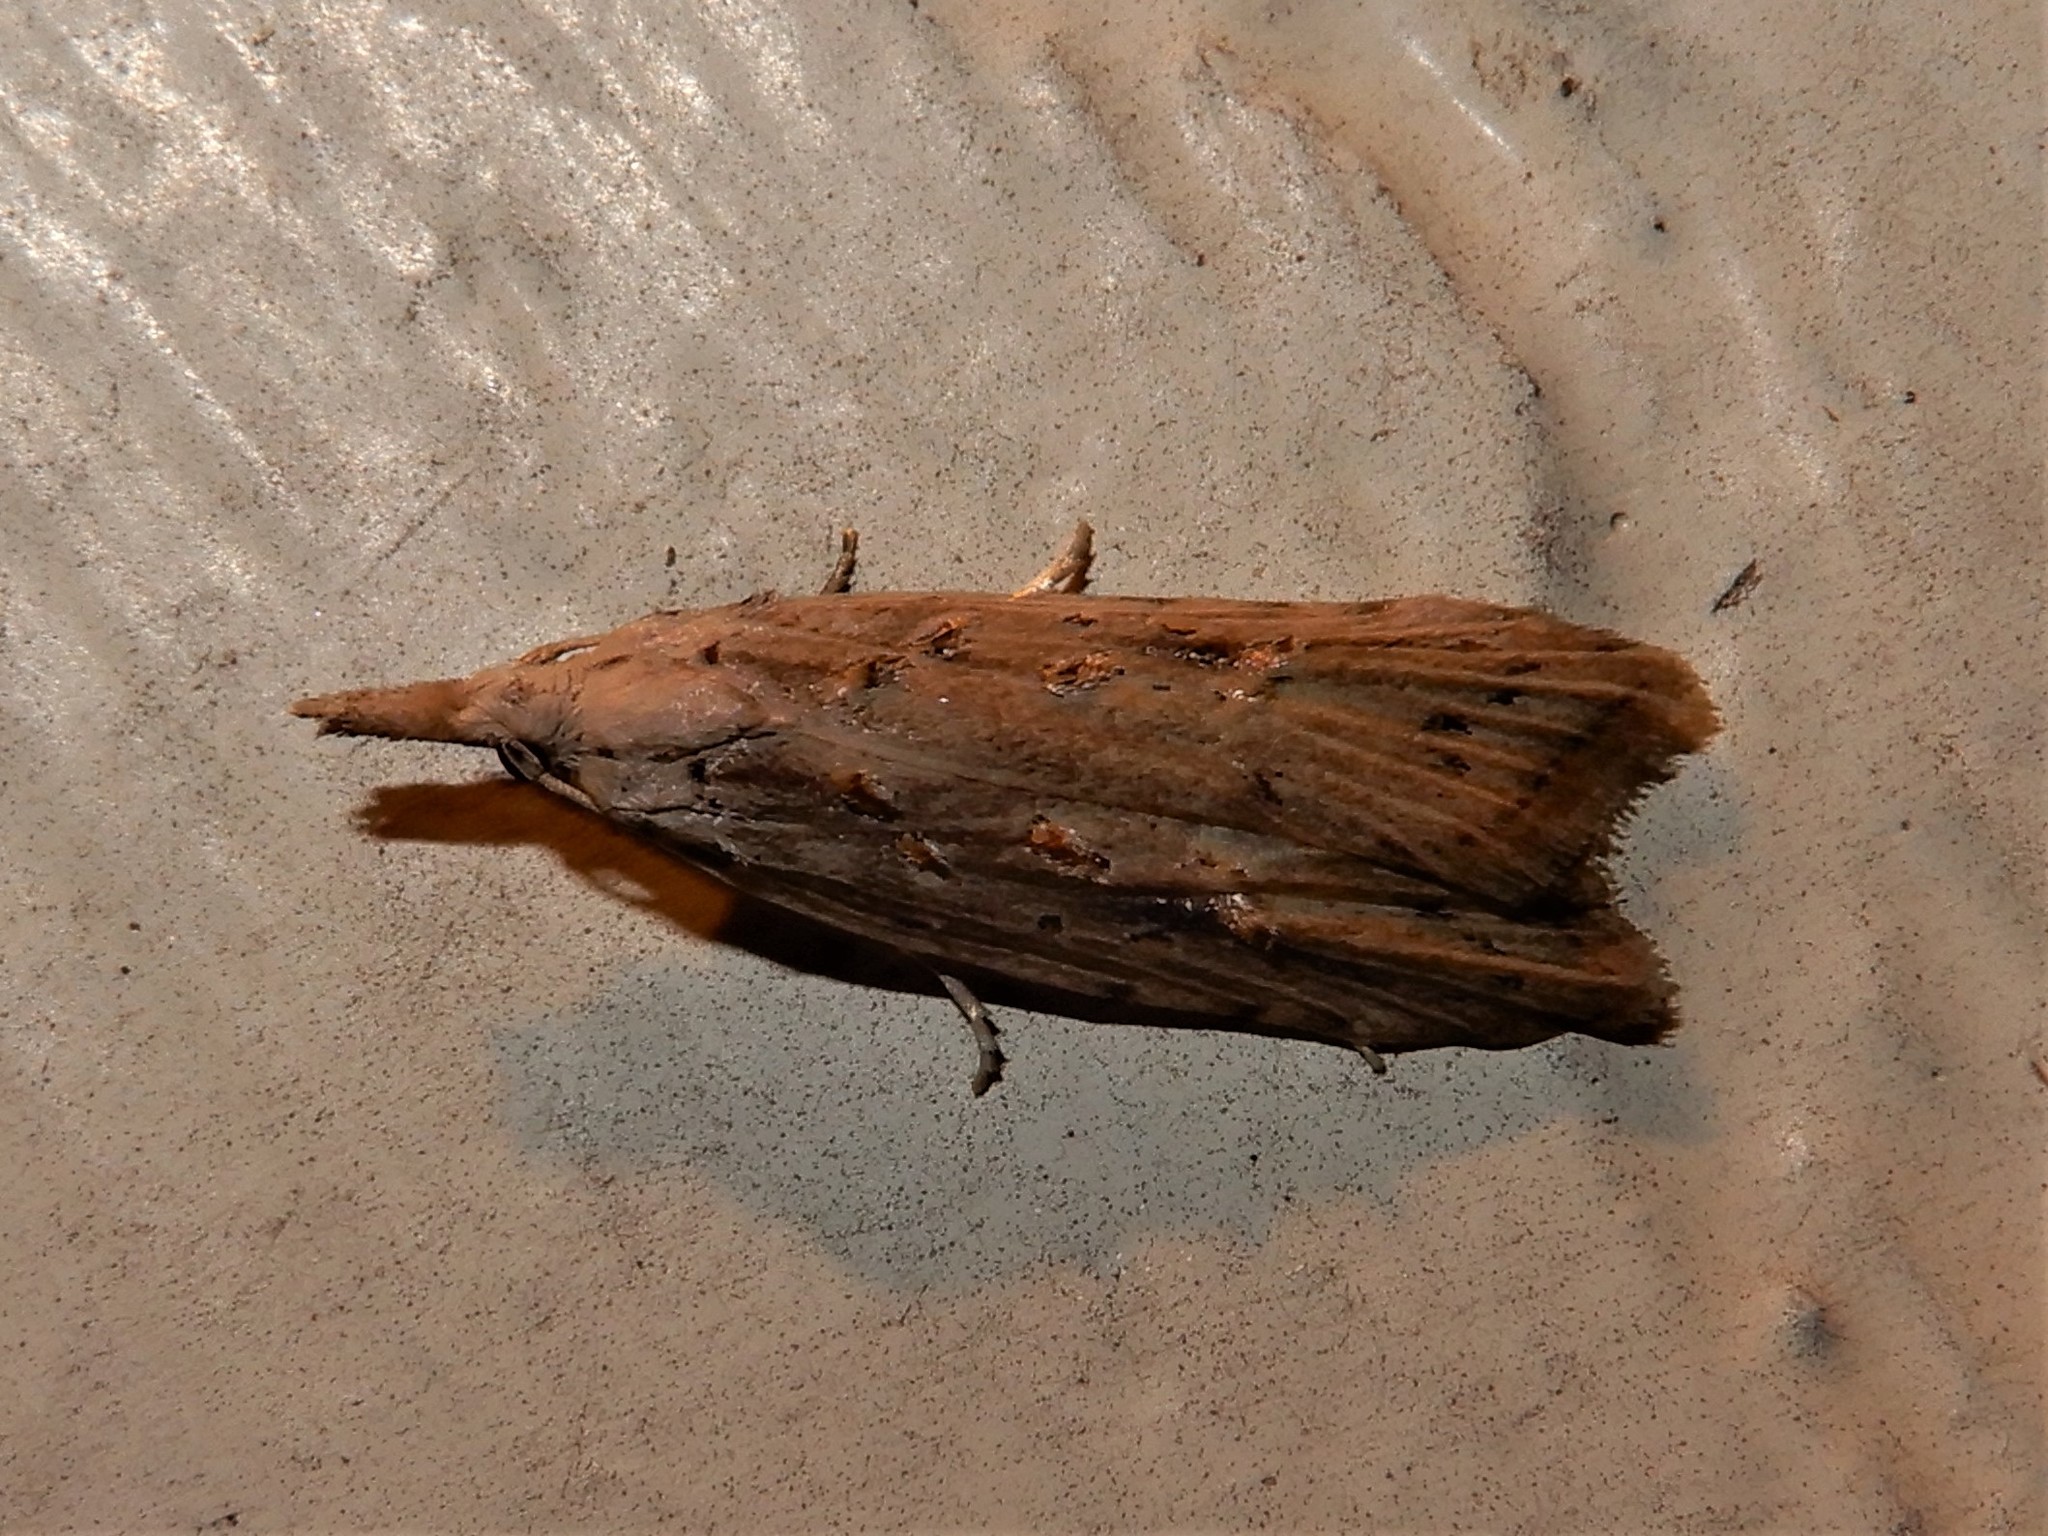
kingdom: Animalia
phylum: Arthropoda
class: Insecta
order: Lepidoptera
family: Carposinidae
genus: Carposina
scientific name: Carposina Heterocrossa exochana
